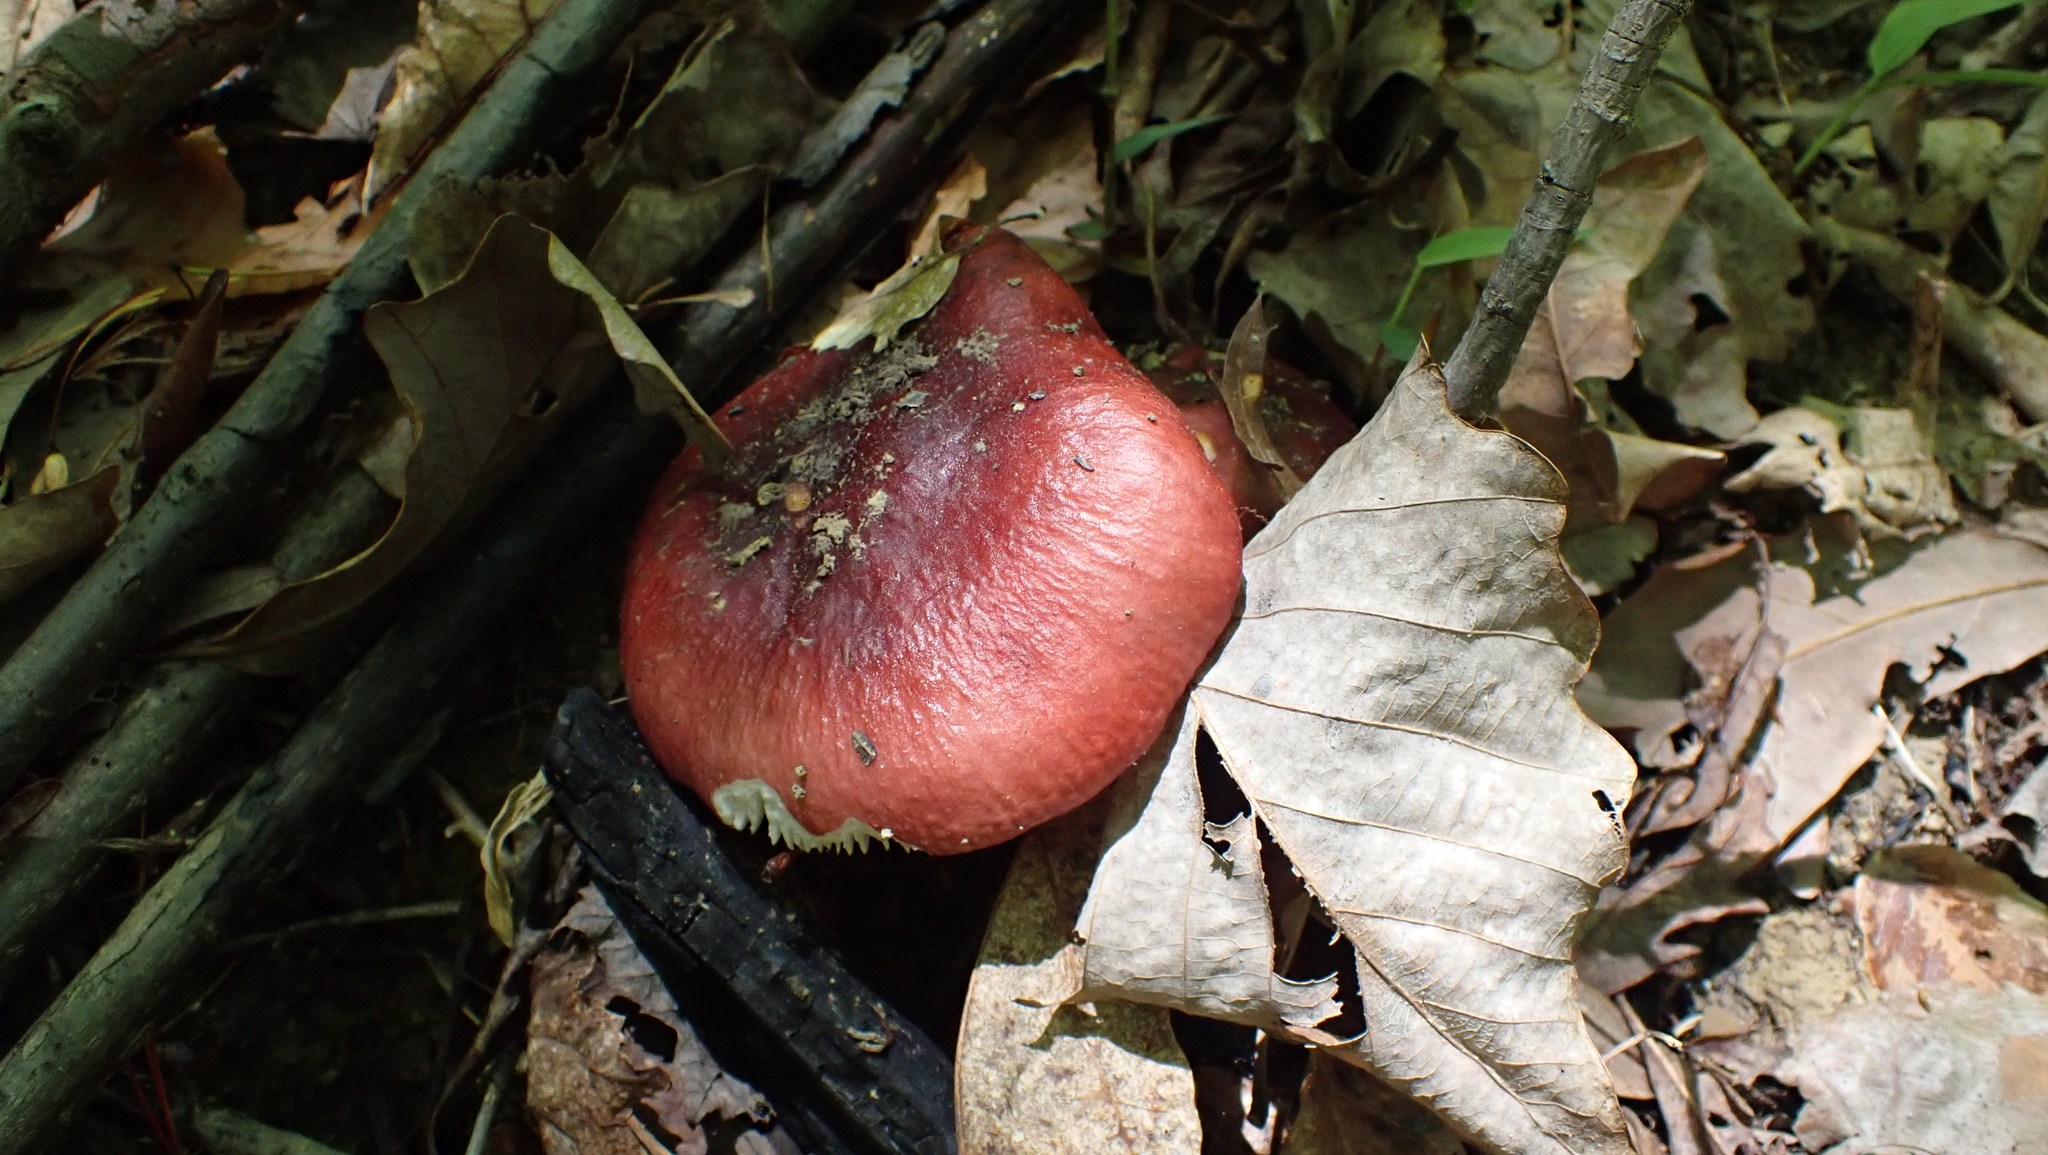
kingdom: Fungi
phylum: Basidiomycota
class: Agaricomycetes
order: Russulales
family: Russulaceae
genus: Russula
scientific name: Russula vinacea
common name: Blackish-red russula
